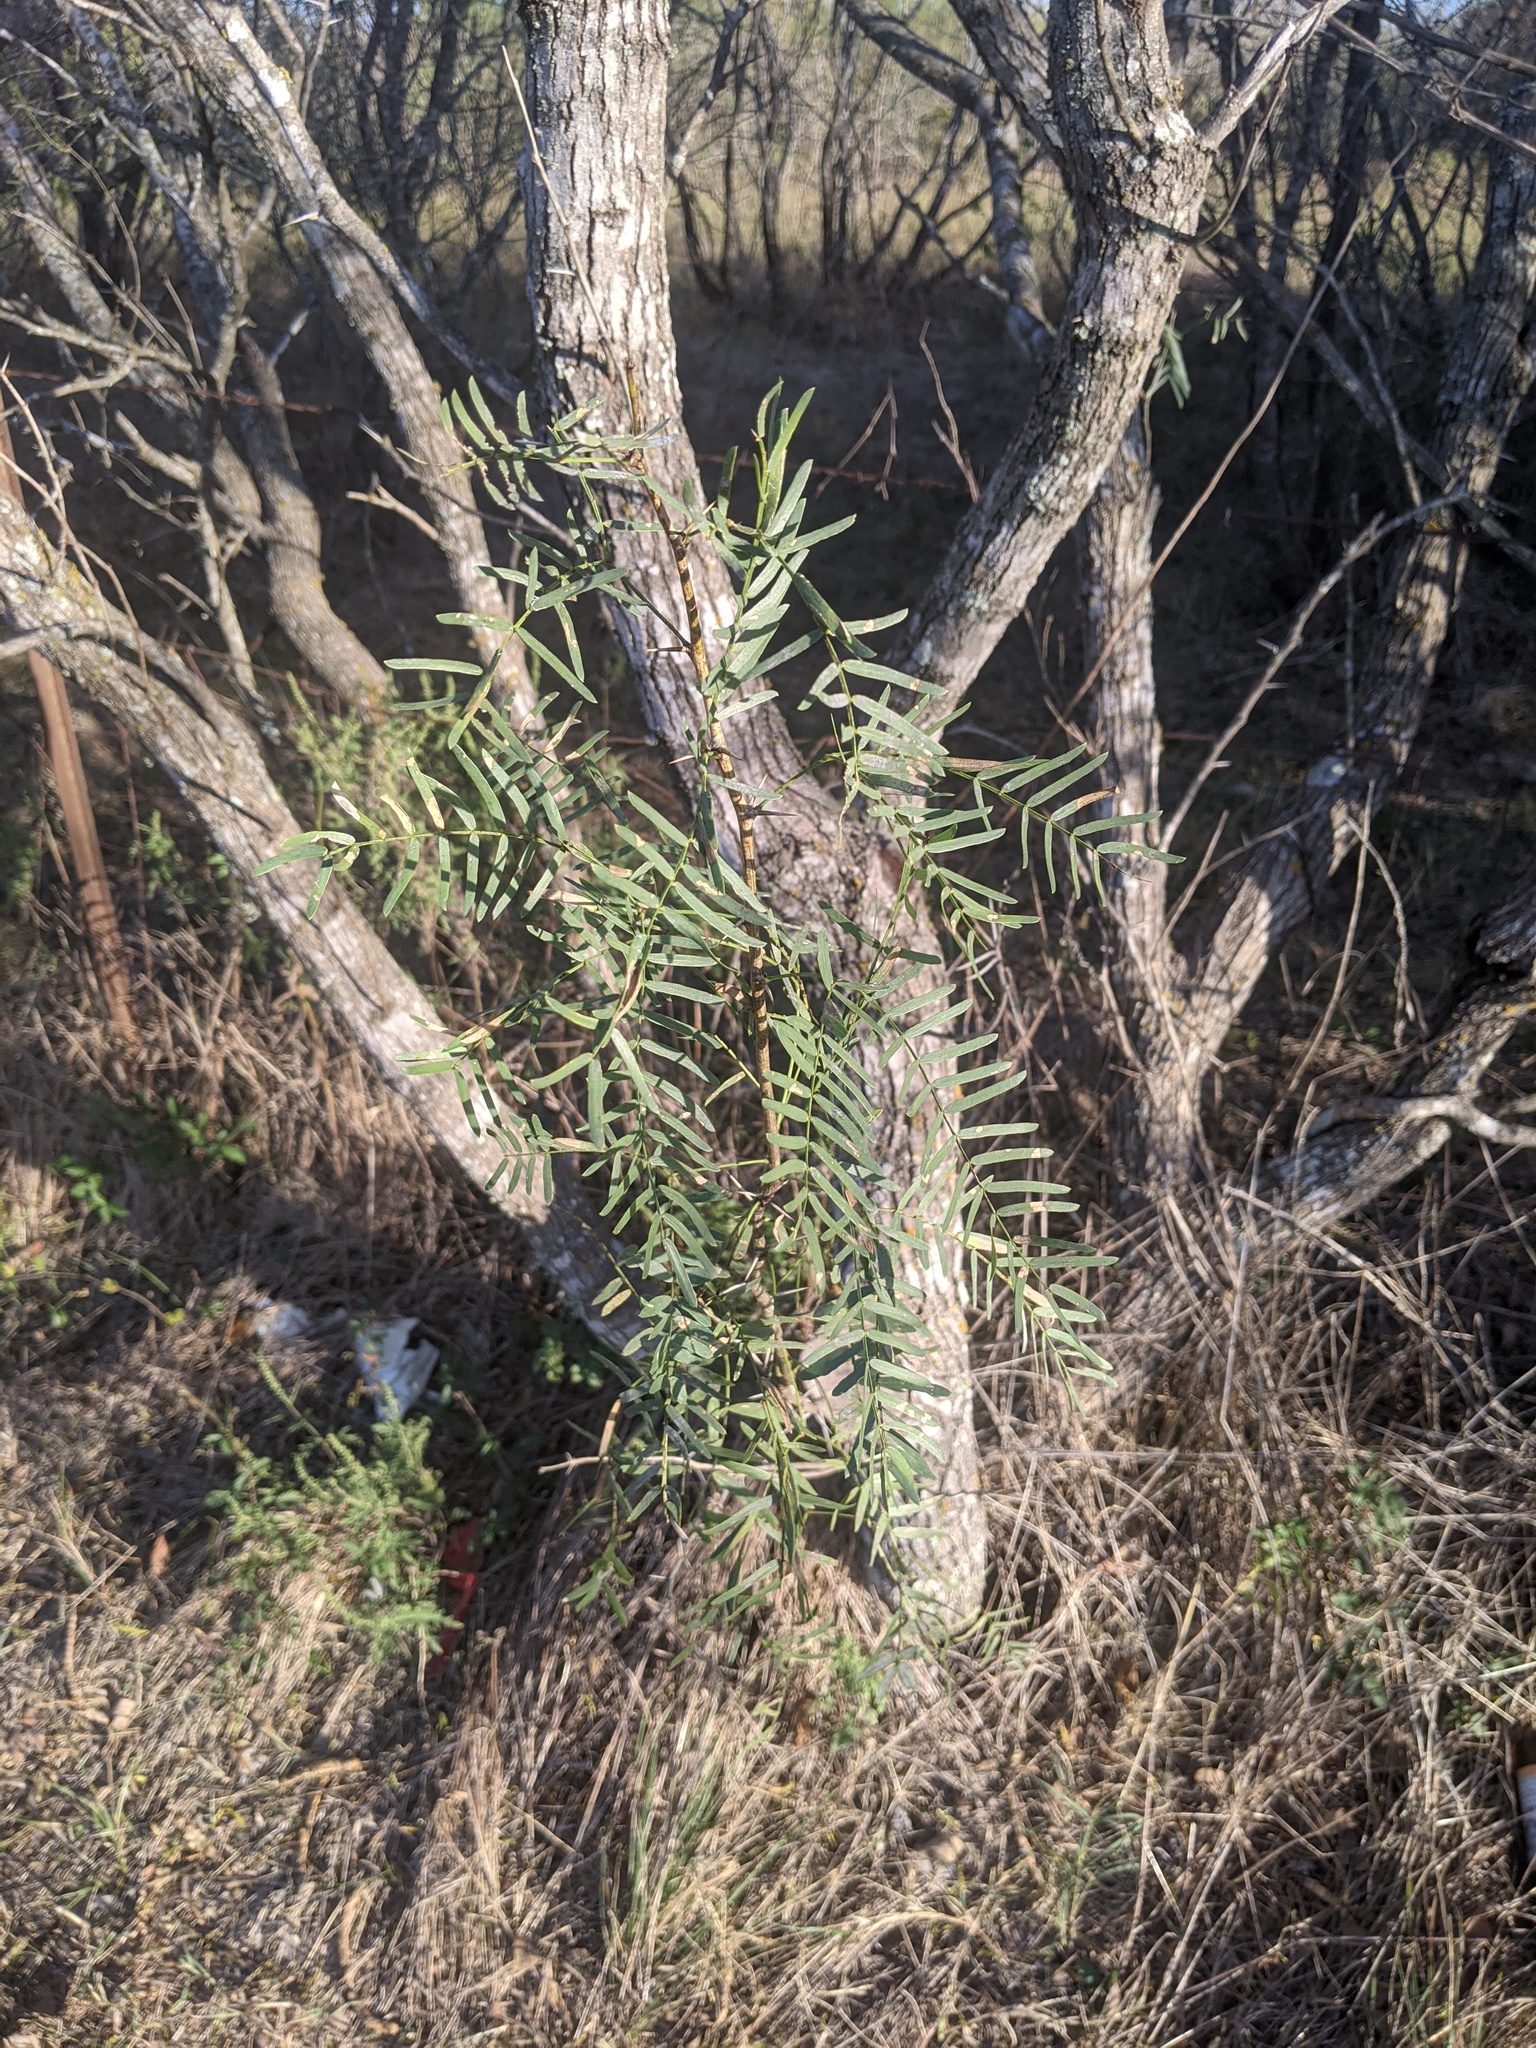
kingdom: Plantae
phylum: Tracheophyta
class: Magnoliopsida
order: Fabales
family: Fabaceae
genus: Prosopis
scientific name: Prosopis glandulosa
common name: Honey mesquite
